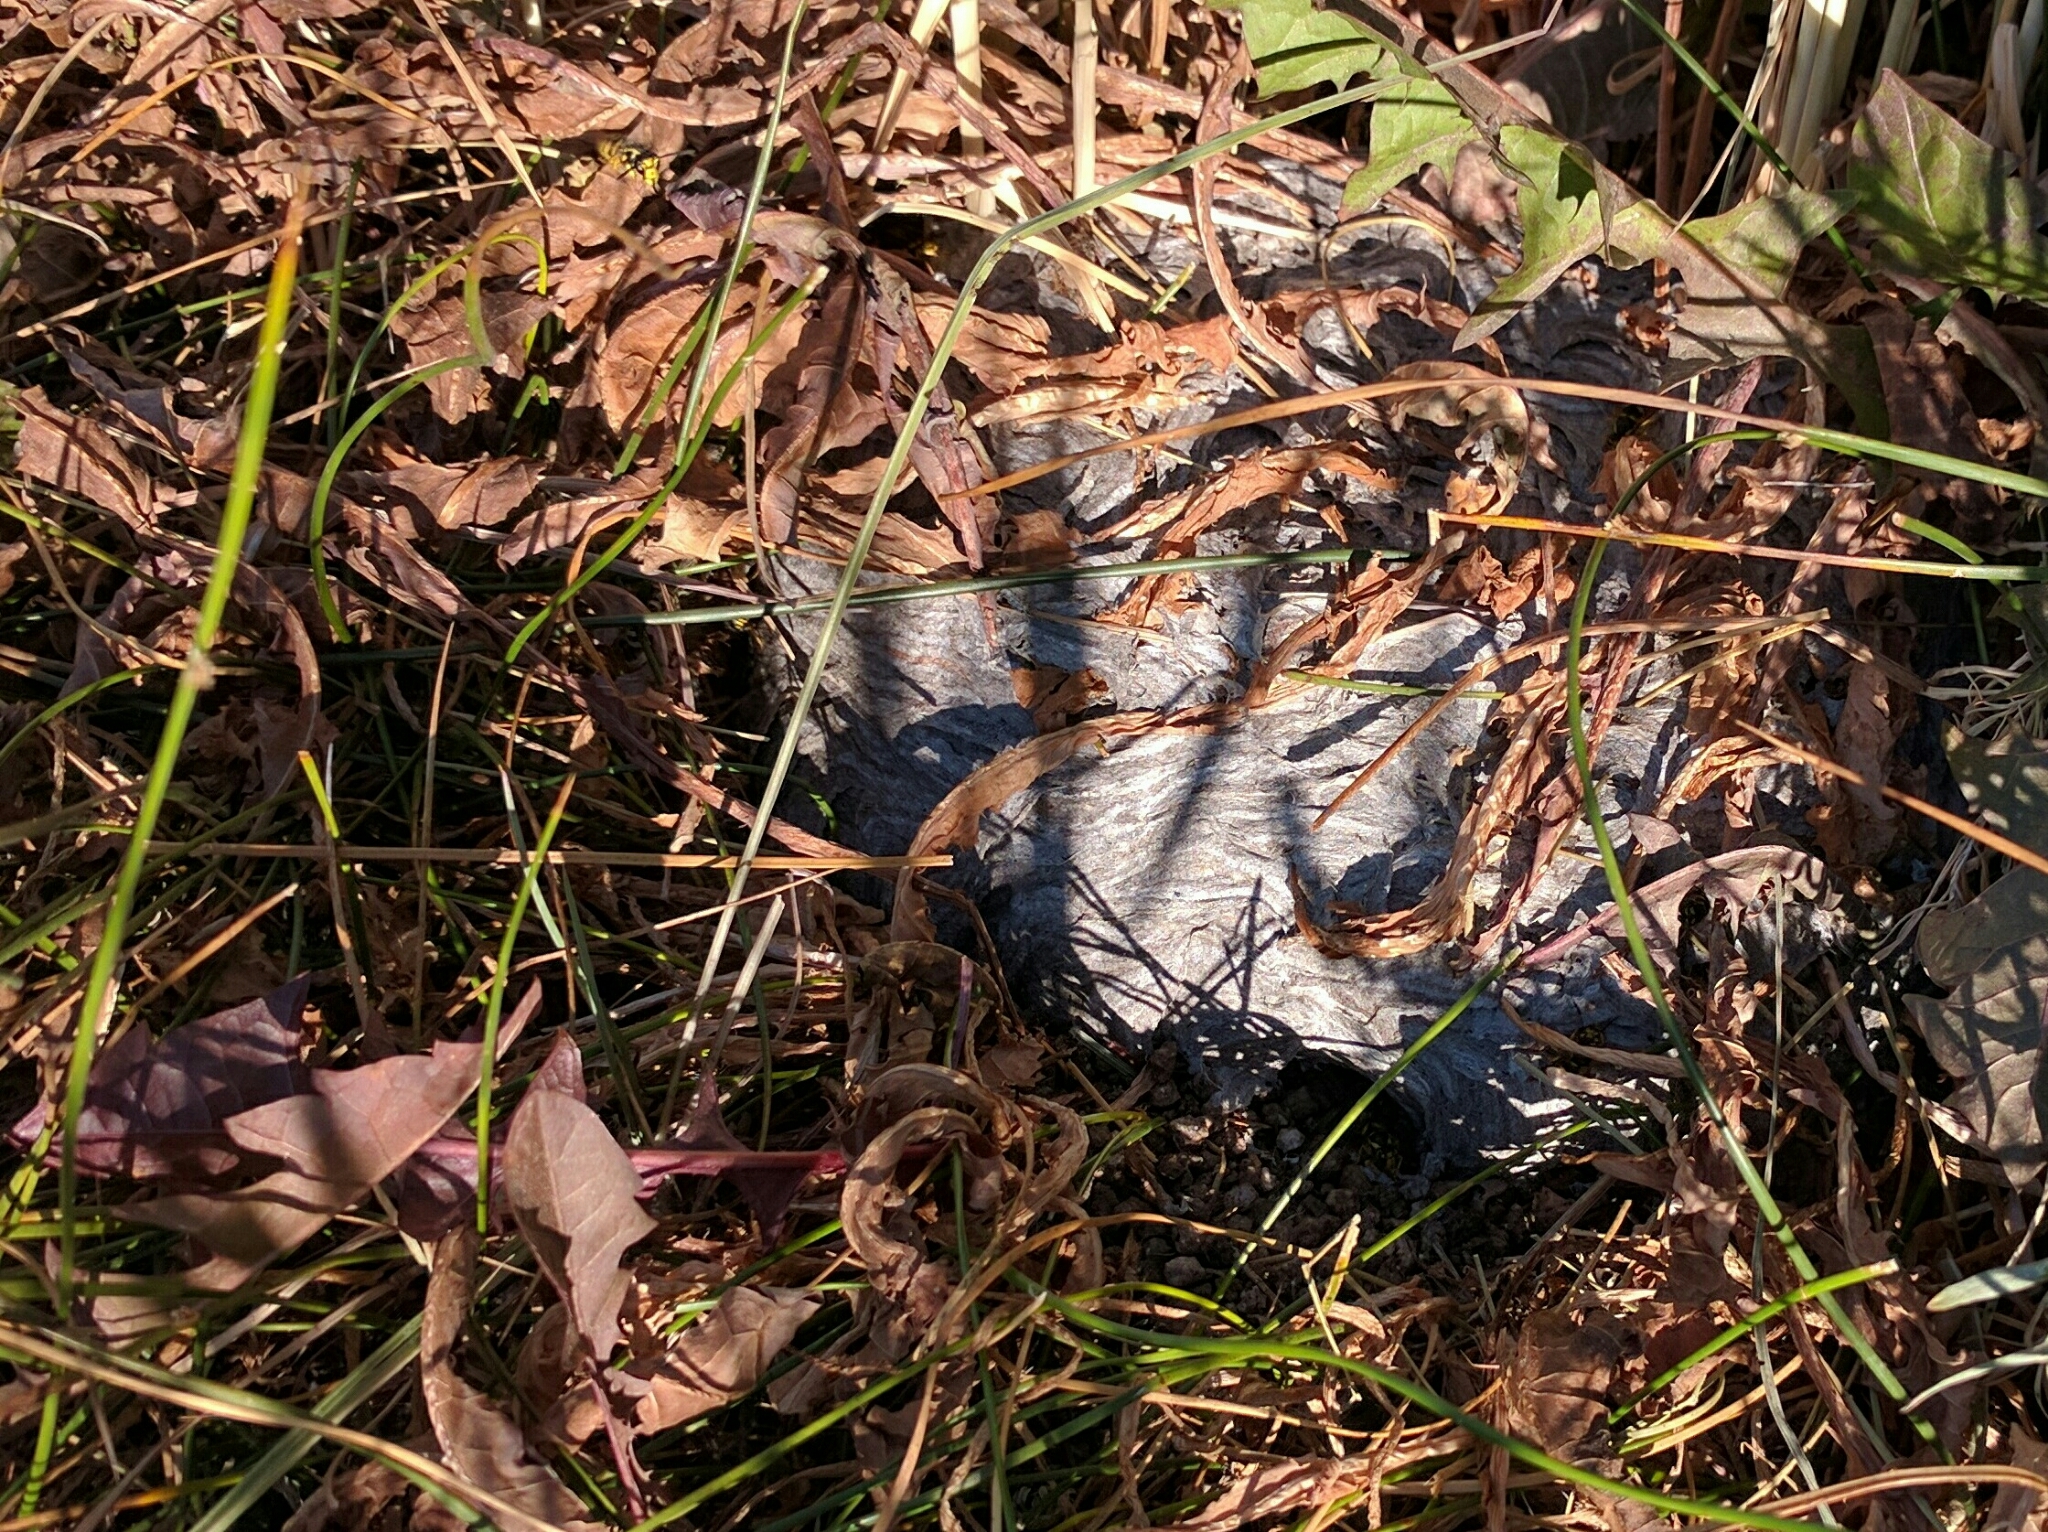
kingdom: Animalia
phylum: Arthropoda
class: Insecta
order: Hymenoptera
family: Vespidae
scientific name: Vespidae
